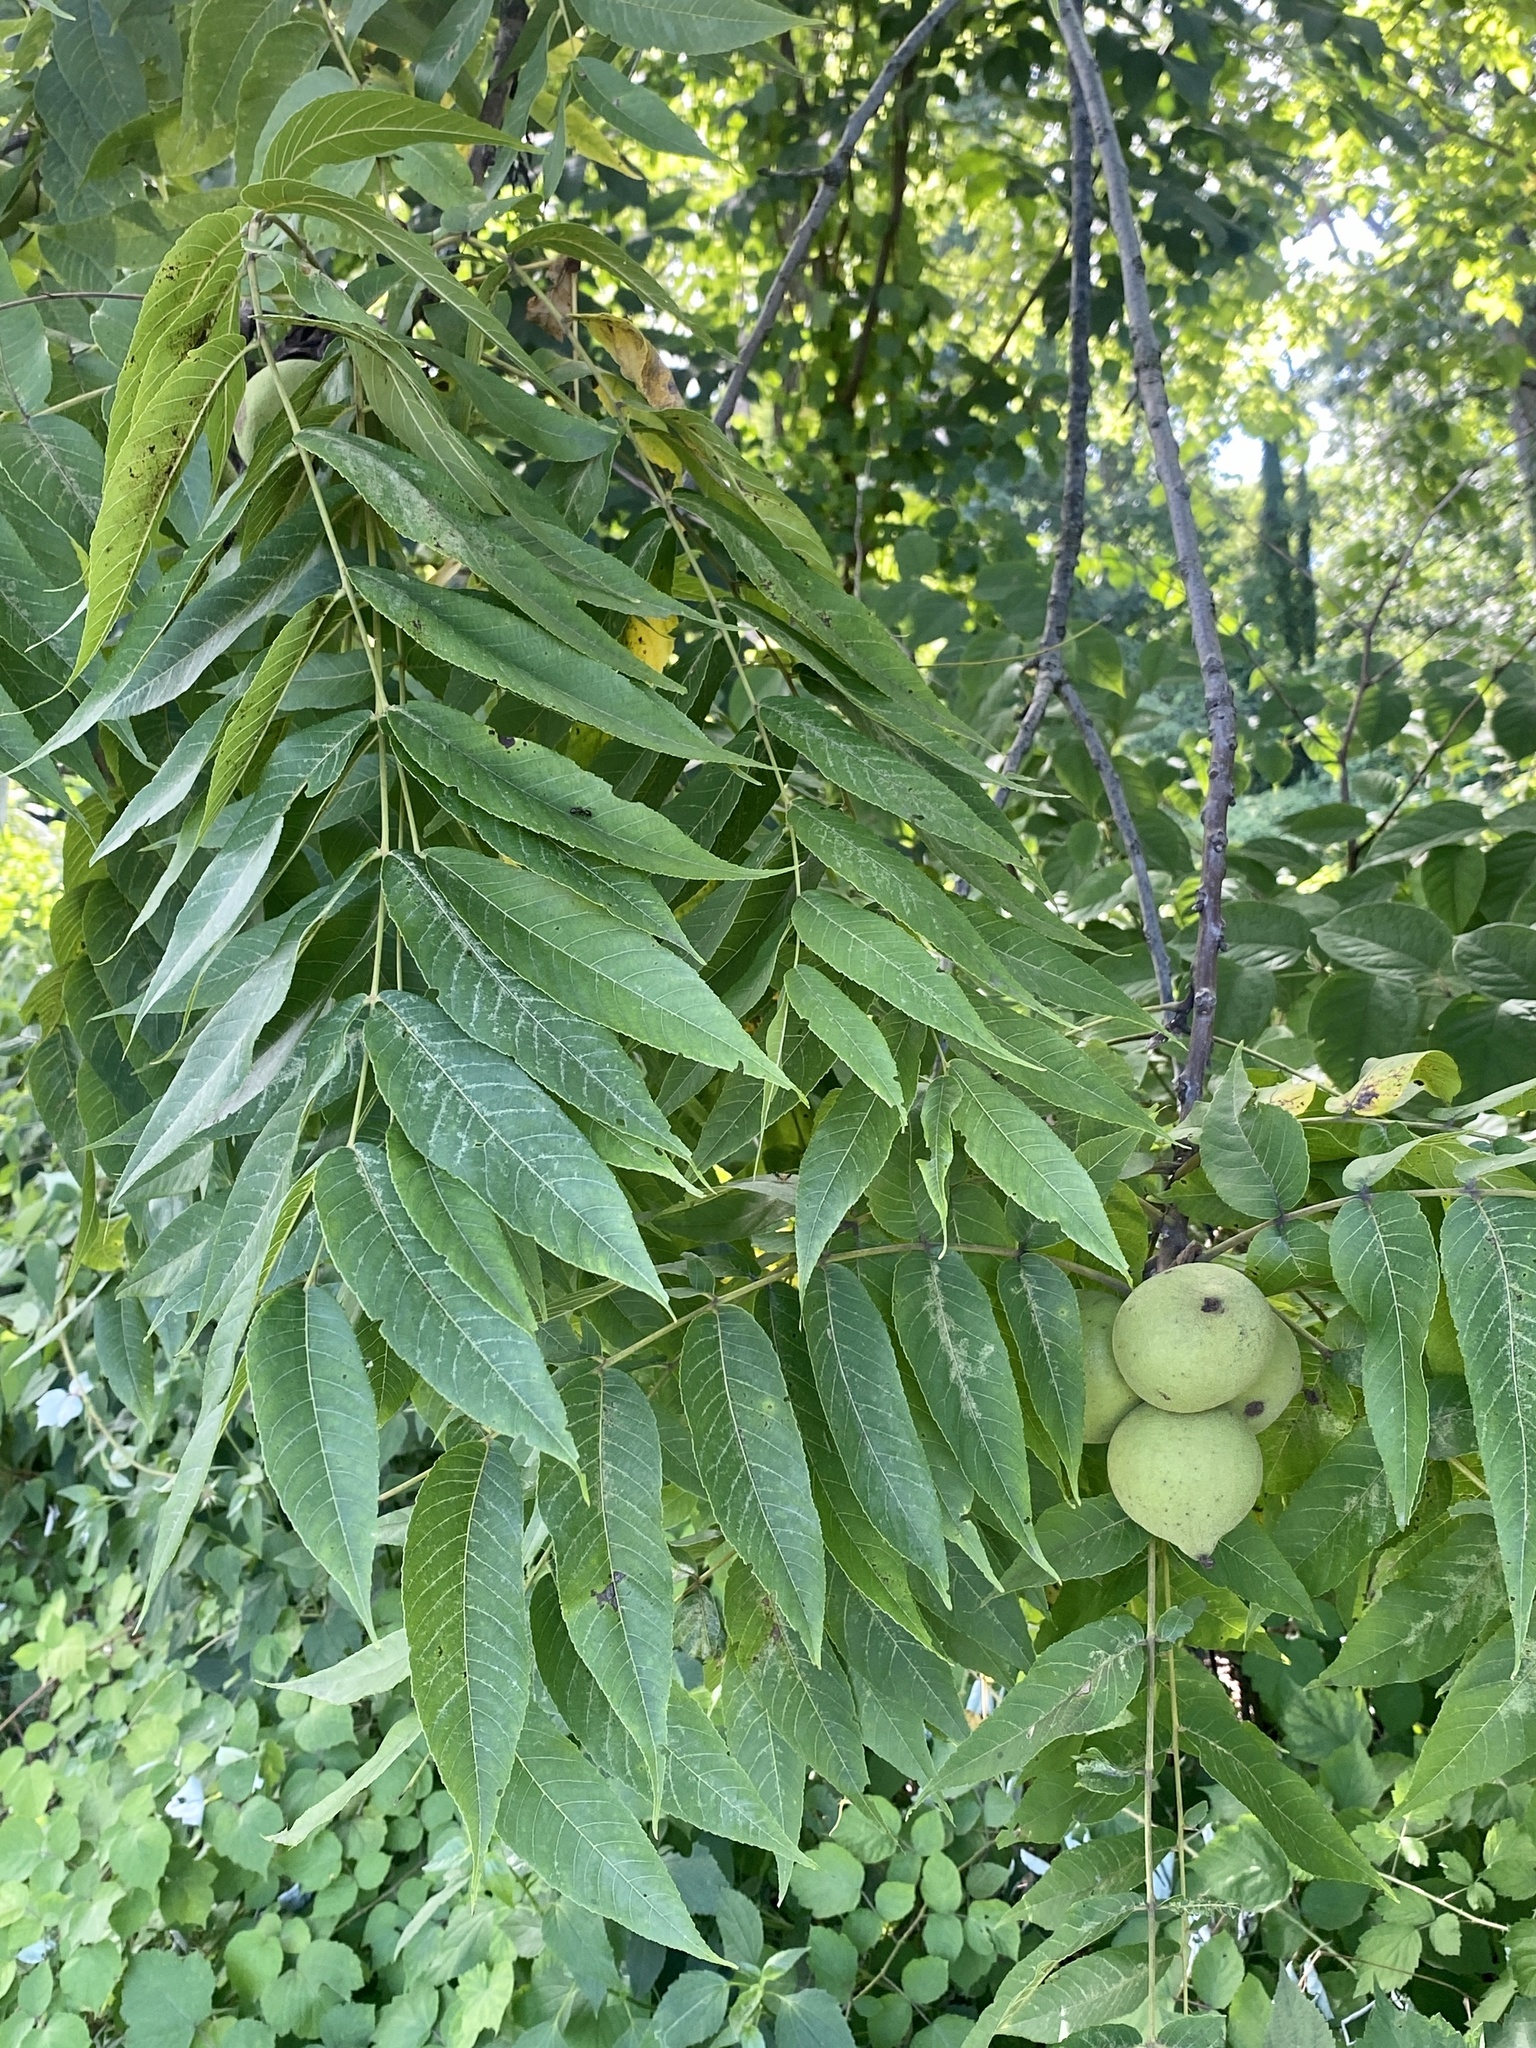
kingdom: Plantae
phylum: Tracheophyta
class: Magnoliopsida
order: Fagales
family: Juglandaceae
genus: Juglans
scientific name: Juglans nigra
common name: Black walnut
